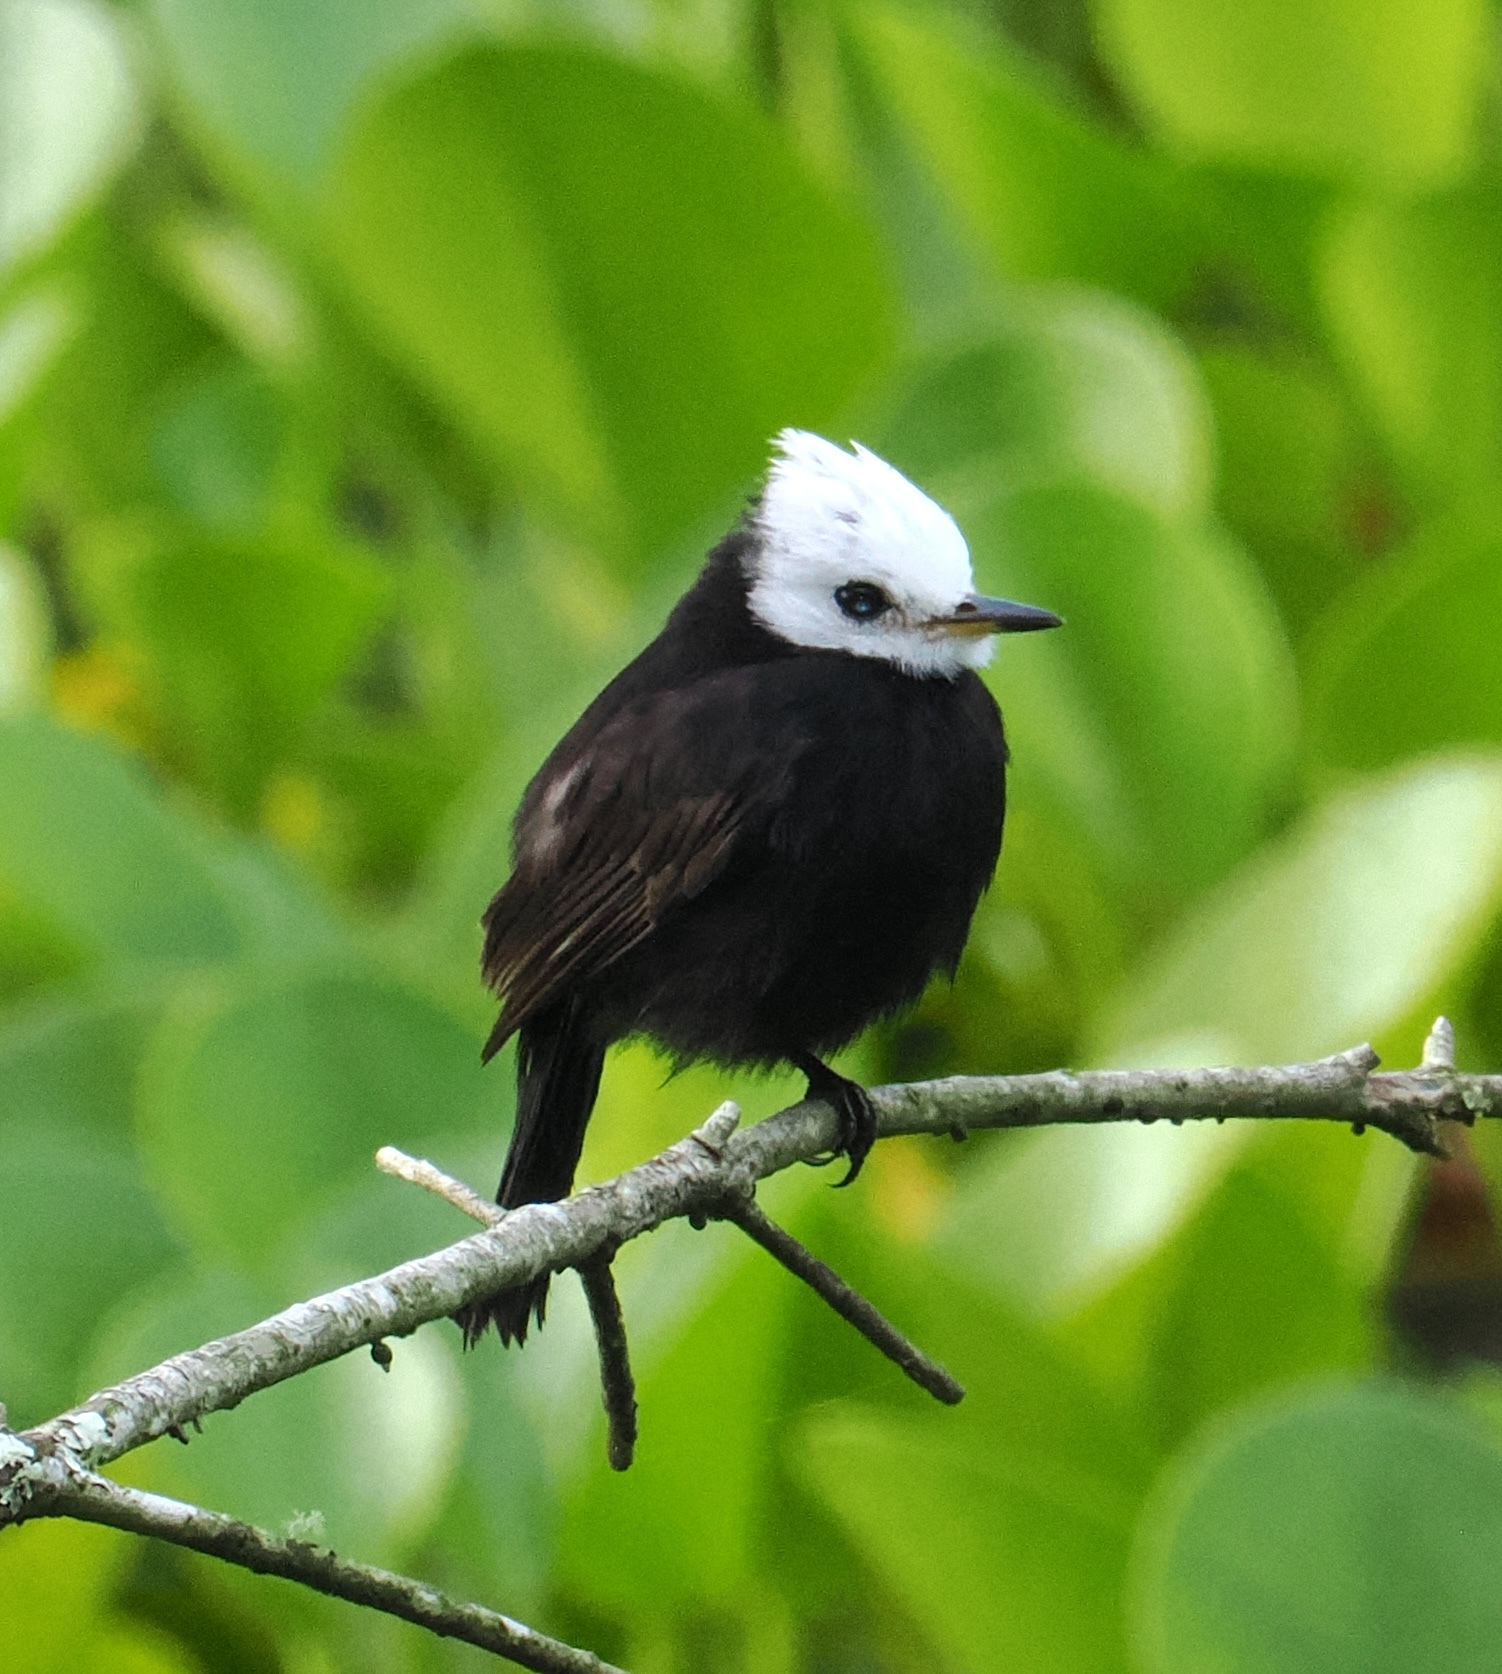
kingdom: Animalia
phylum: Chordata
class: Aves
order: Passeriformes
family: Tyrannidae
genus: Arundinicola
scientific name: Arundinicola leucocephala
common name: White-headed marsh tyrant
